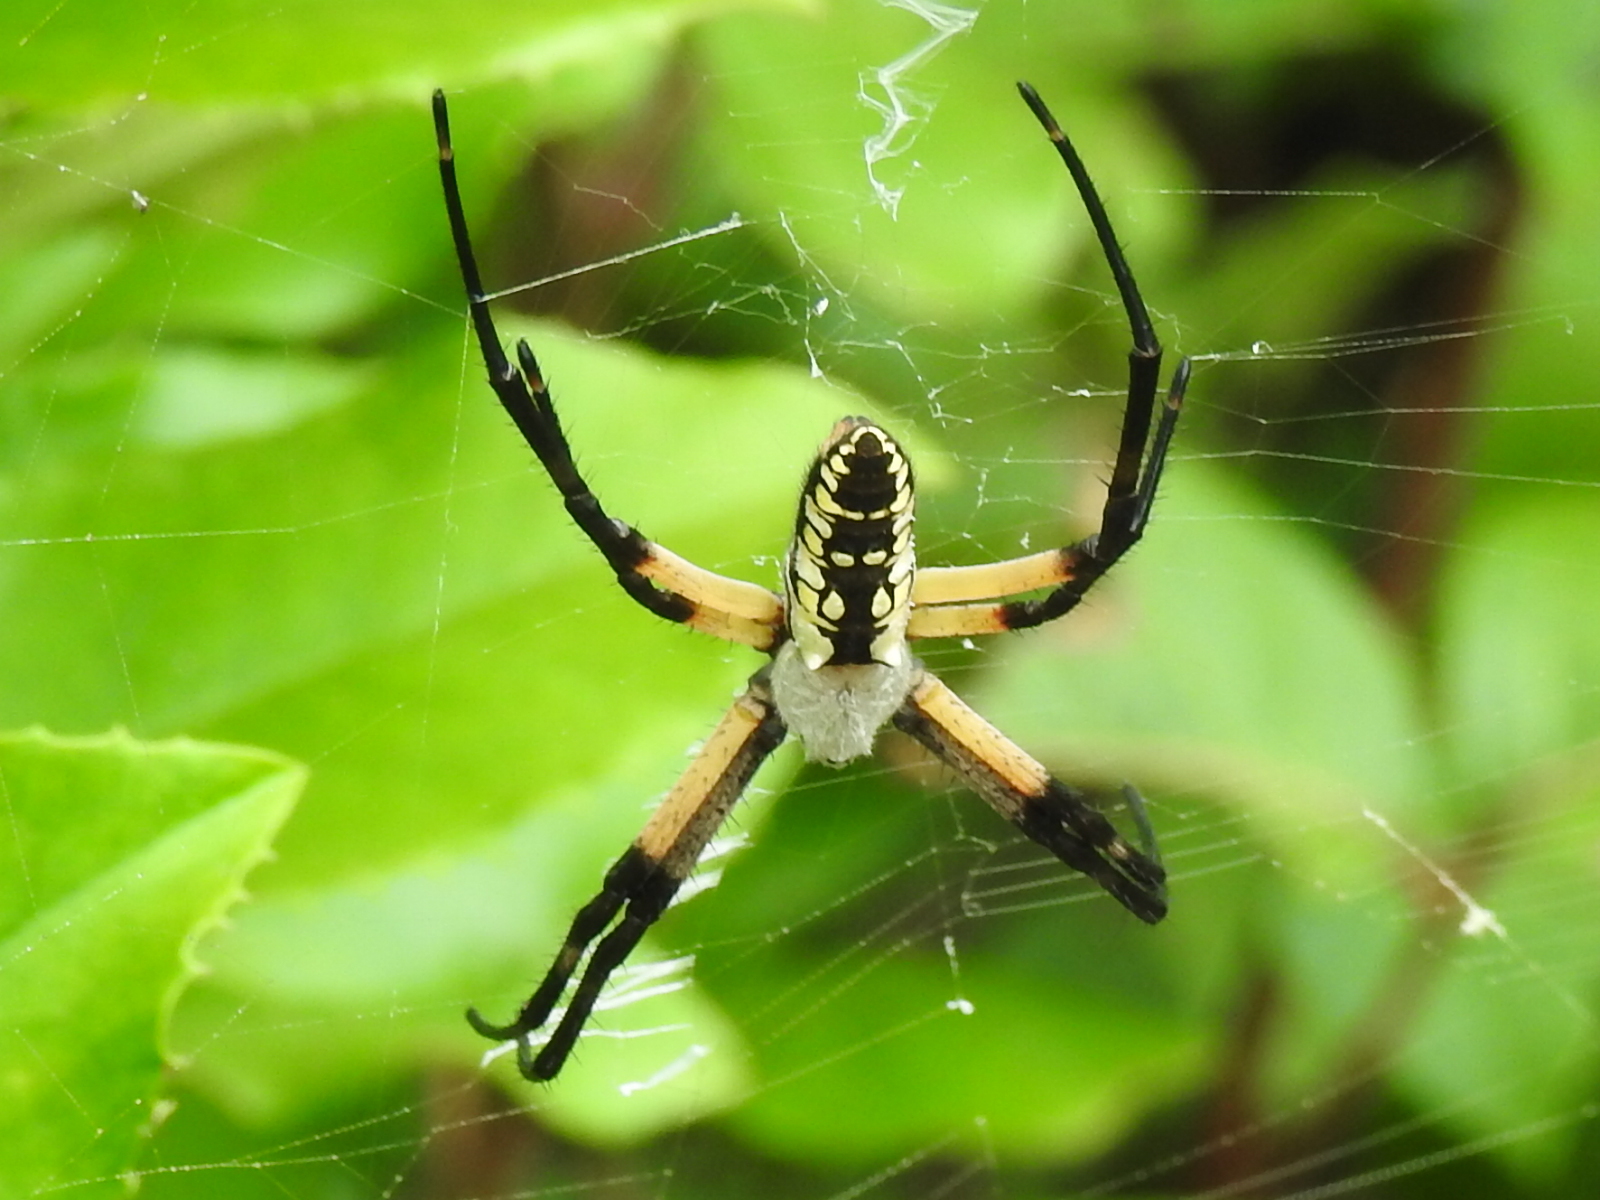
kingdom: Animalia
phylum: Arthropoda
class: Arachnida
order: Araneae
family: Araneidae
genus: Argiope
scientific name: Argiope aurantia
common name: Orb weavers
